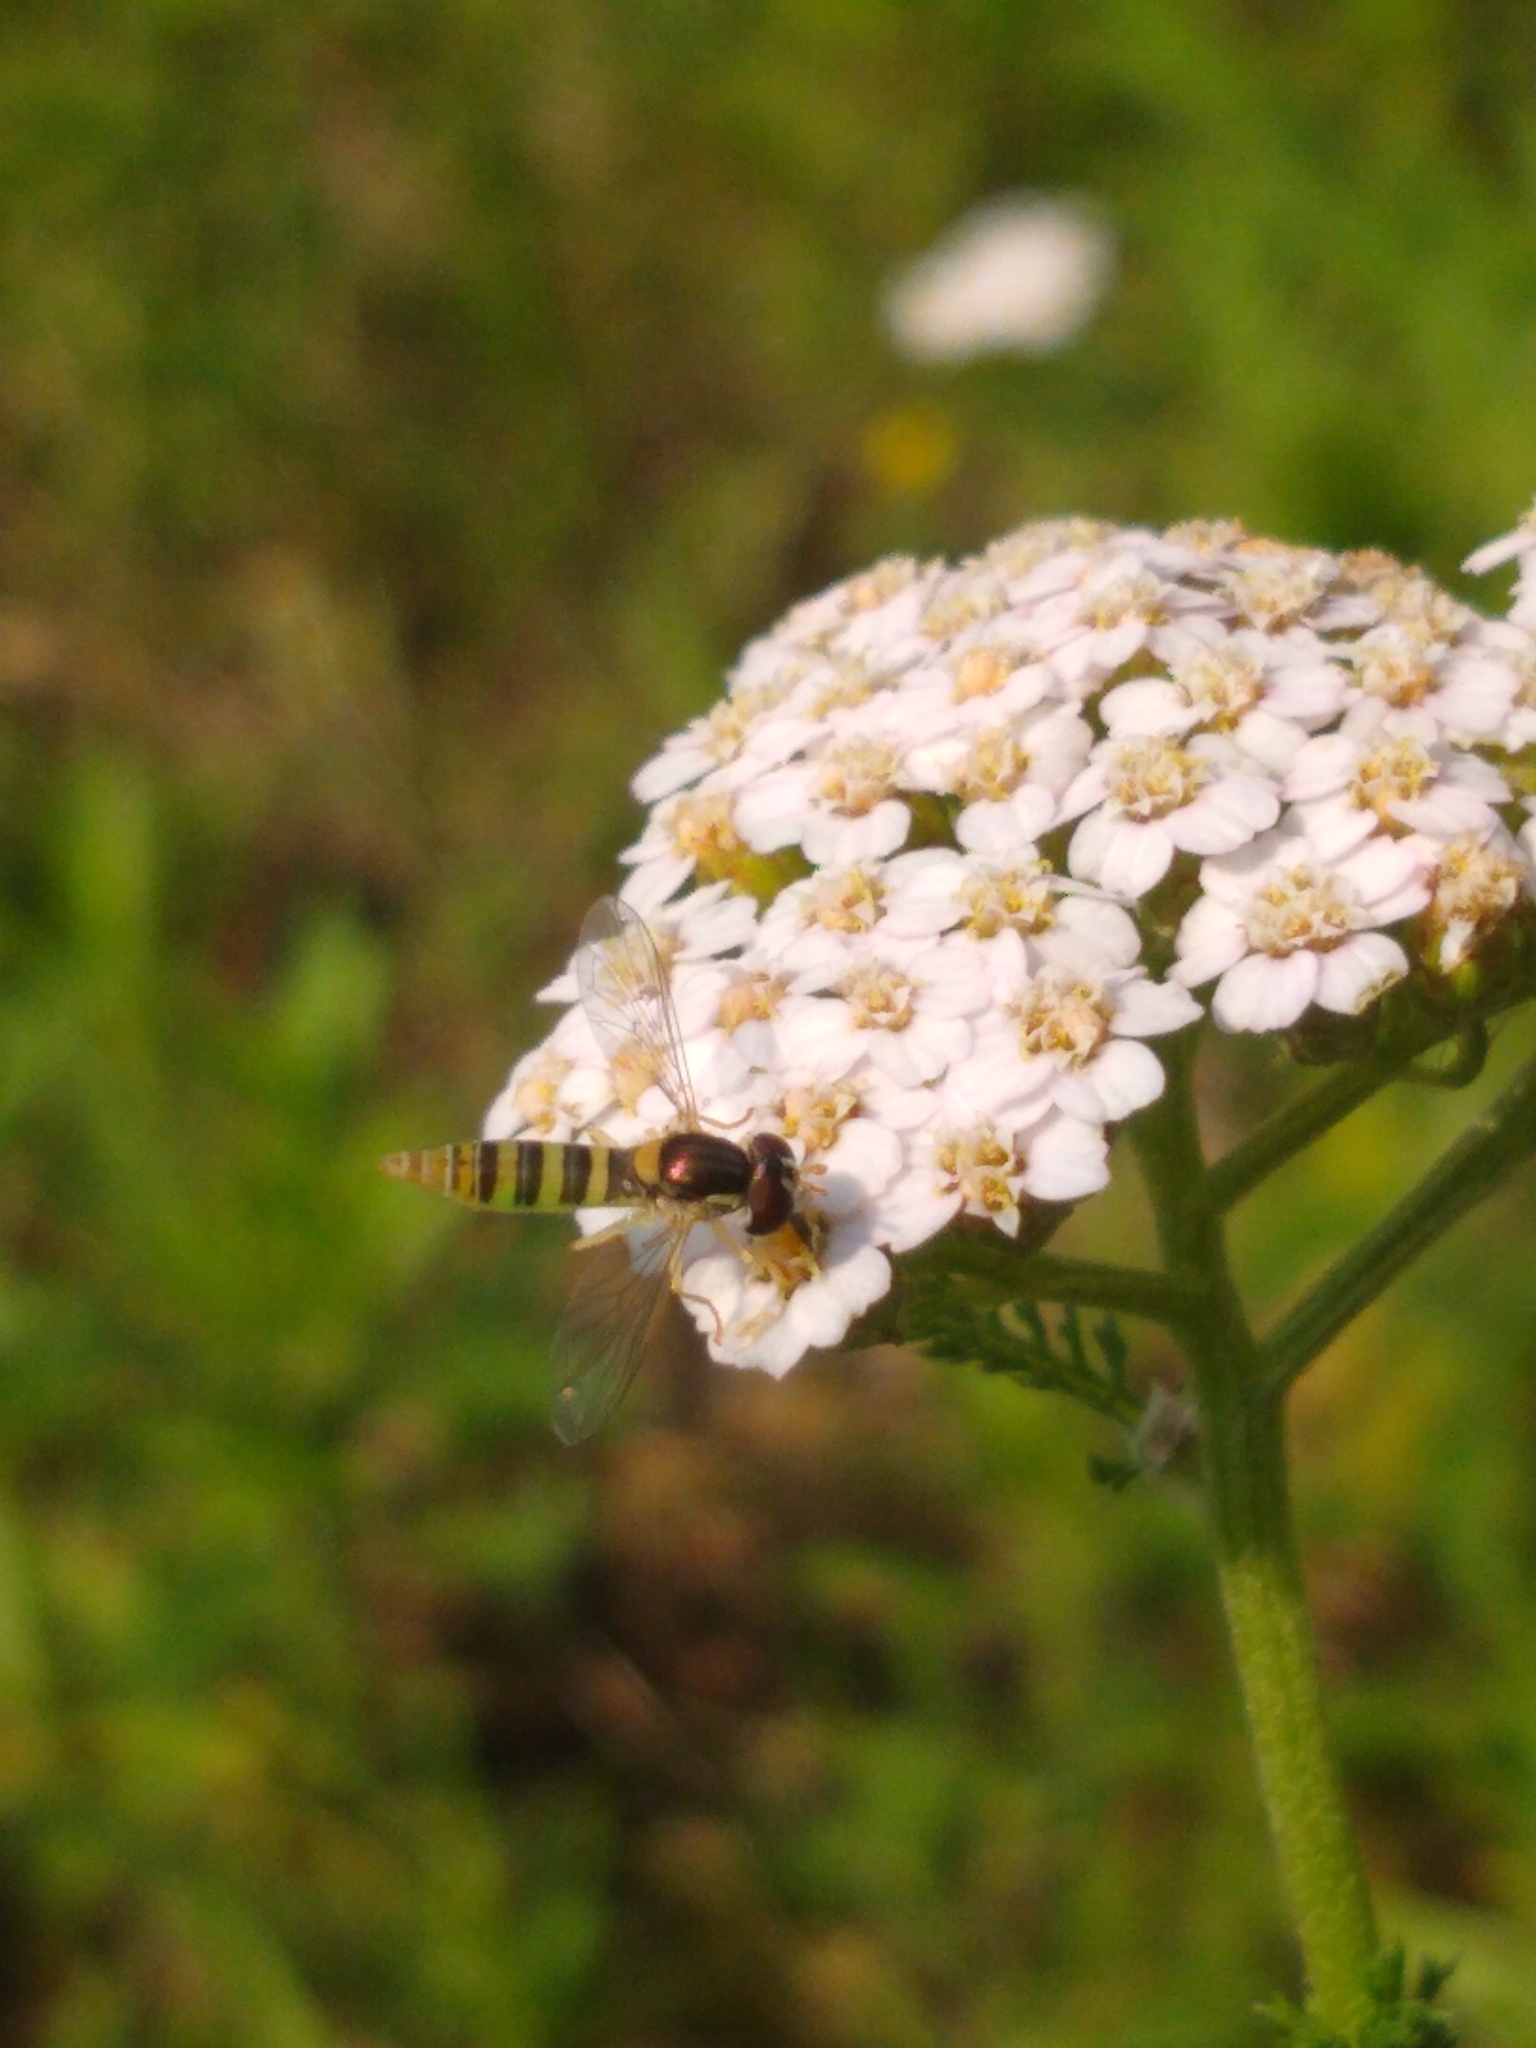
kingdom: Animalia
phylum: Arthropoda
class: Insecta
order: Diptera
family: Syrphidae
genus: Sphaerophoria
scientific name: Sphaerophoria contigua
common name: Tufted globetail
